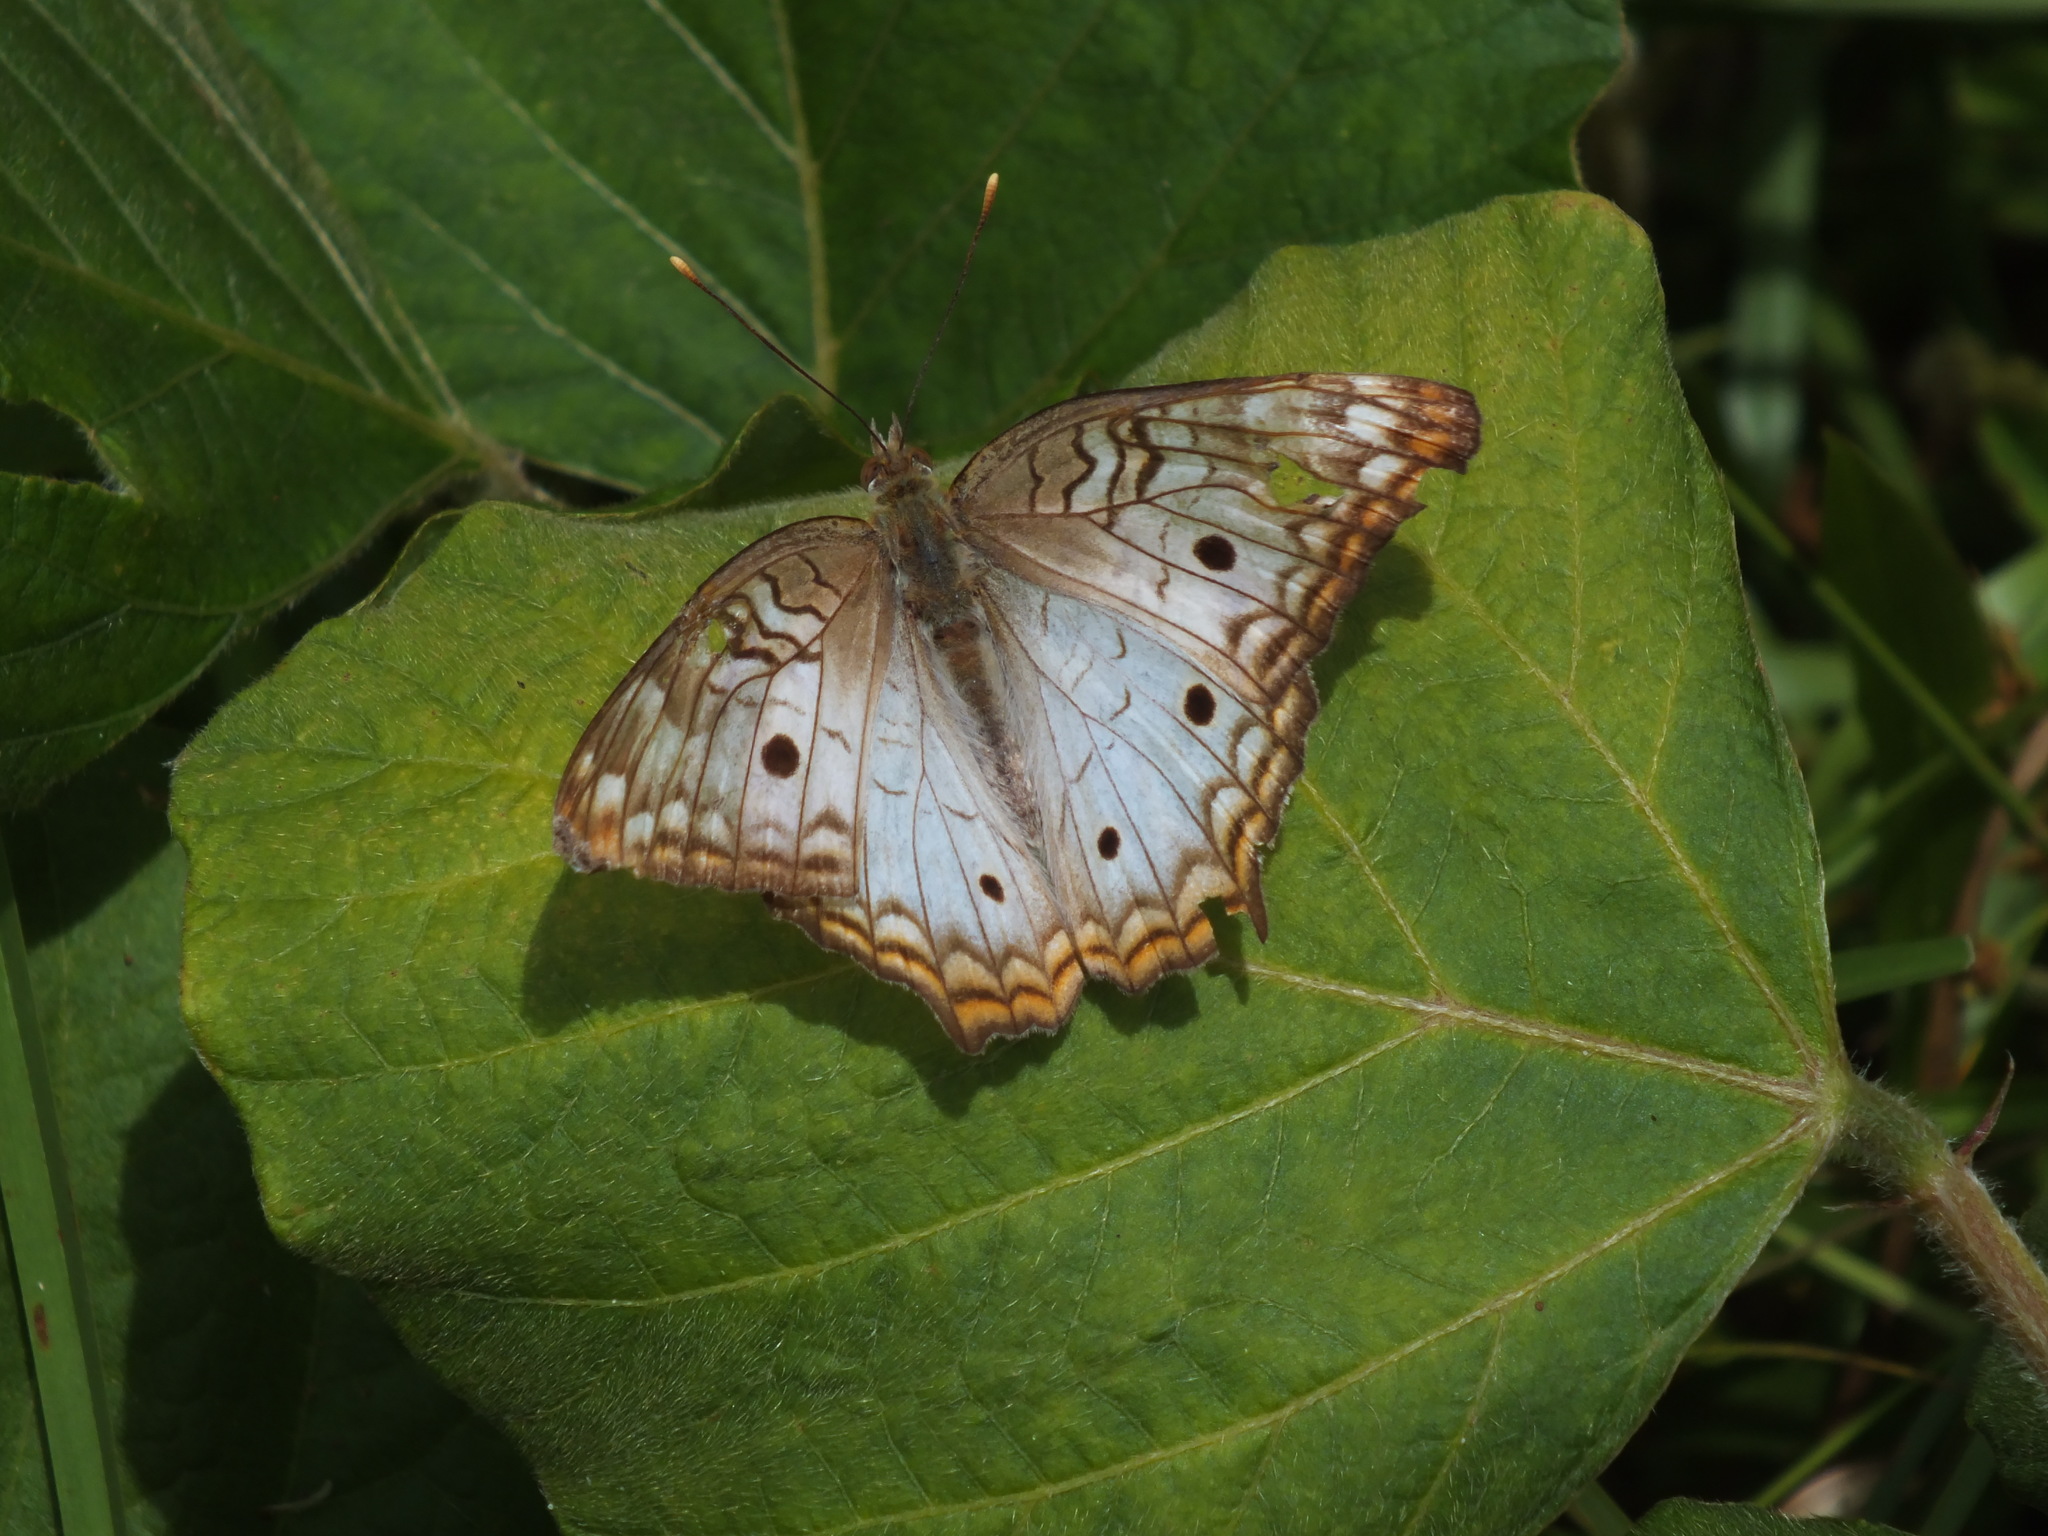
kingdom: Animalia
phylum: Arthropoda
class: Insecta
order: Lepidoptera
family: Nymphalidae
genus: Anartia
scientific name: Anartia jatrophae
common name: White peacock
